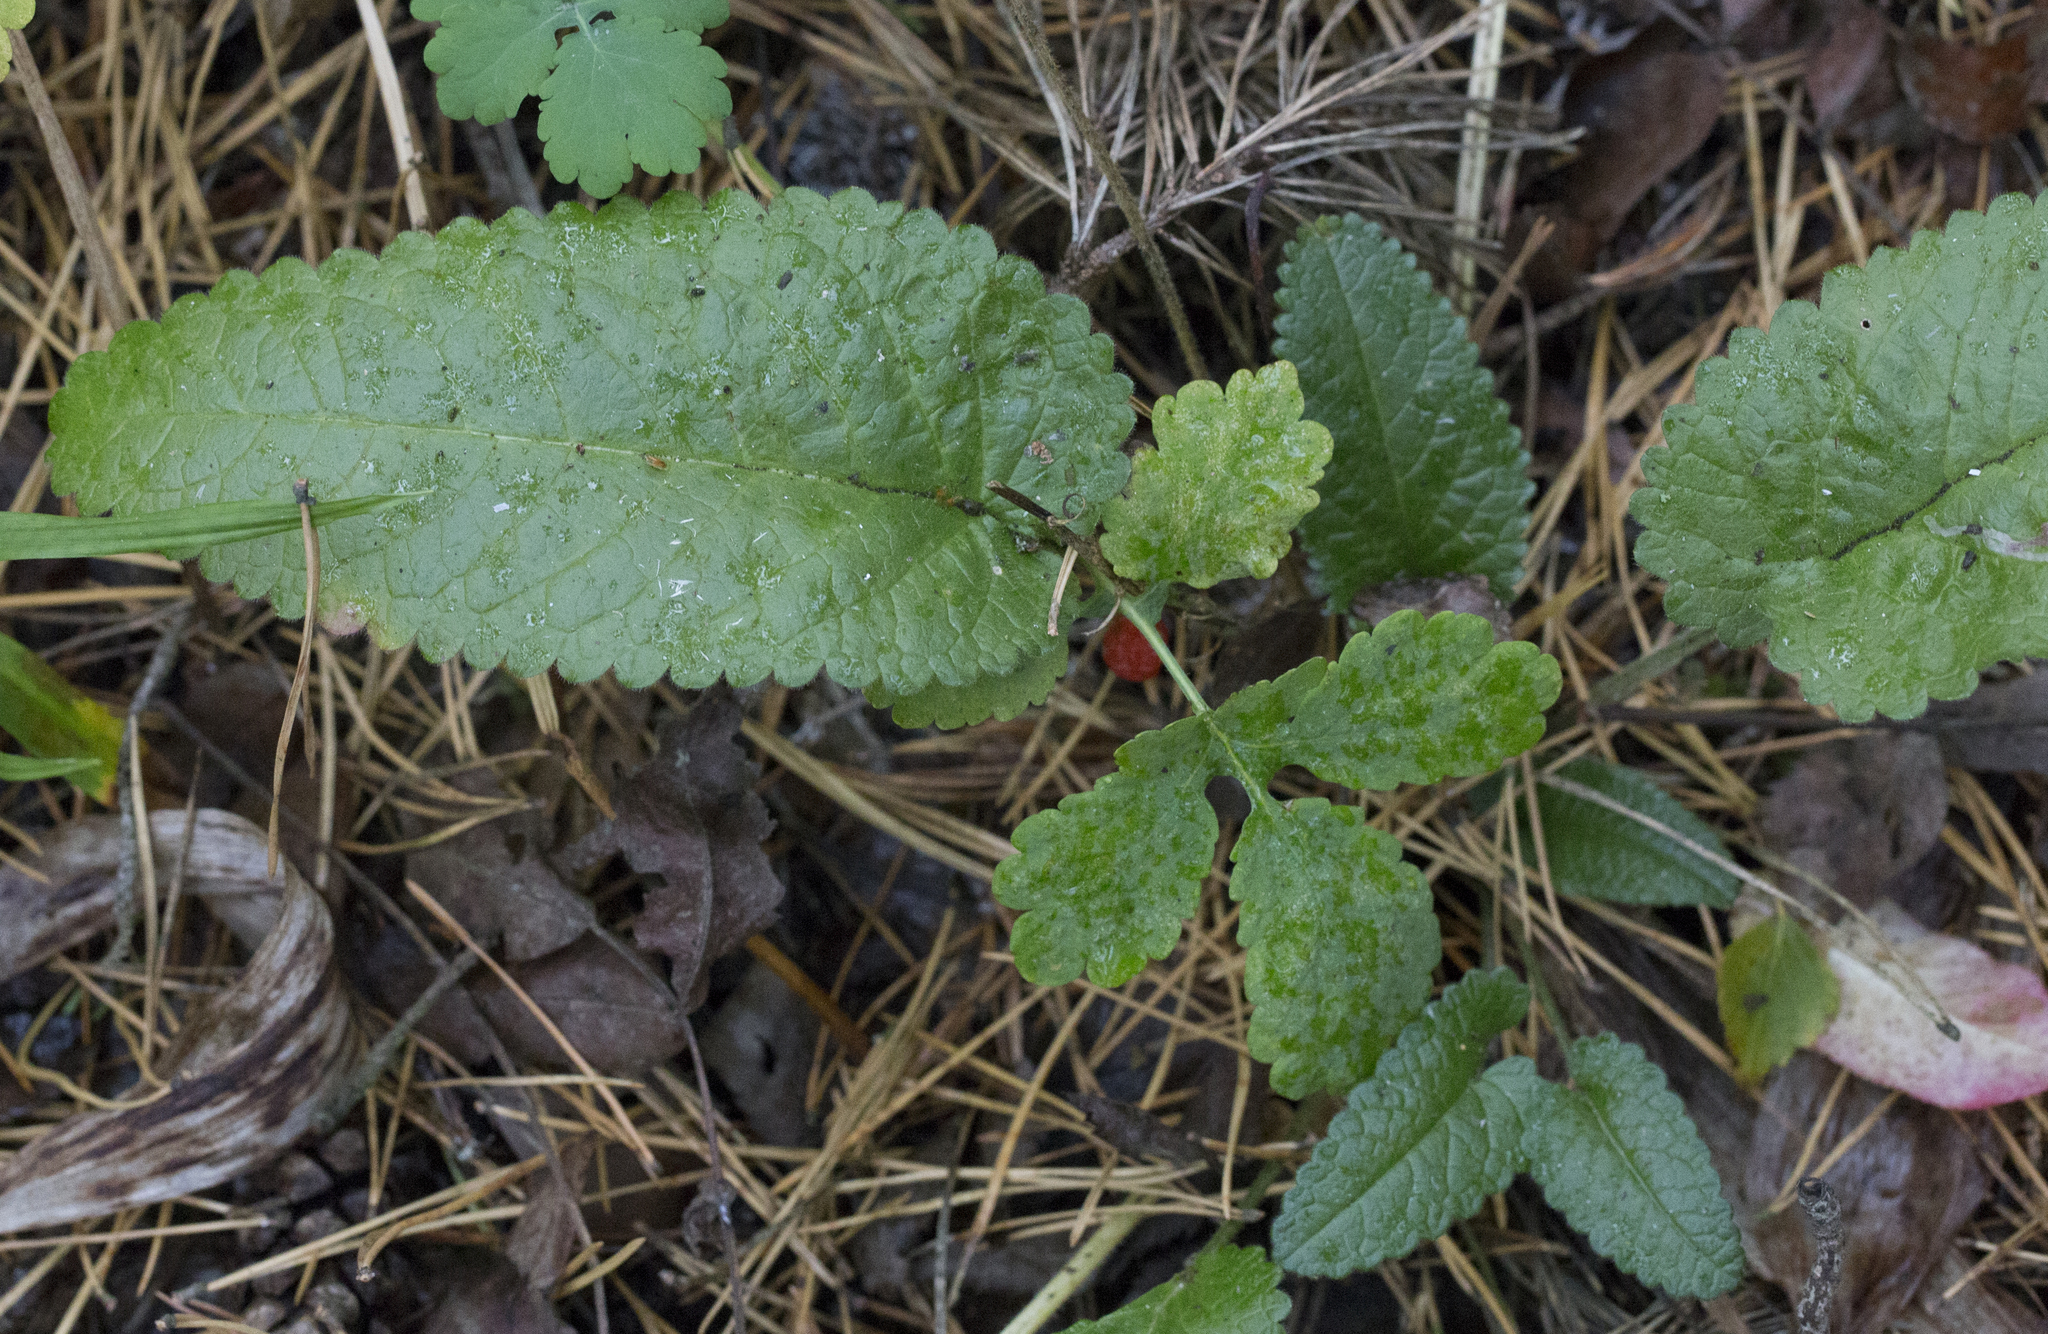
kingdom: Plantae
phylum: Tracheophyta
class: Magnoliopsida
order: Lamiales
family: Lamiaceae
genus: Betonica
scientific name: Betonica officinalis
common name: Bishop's-wort
